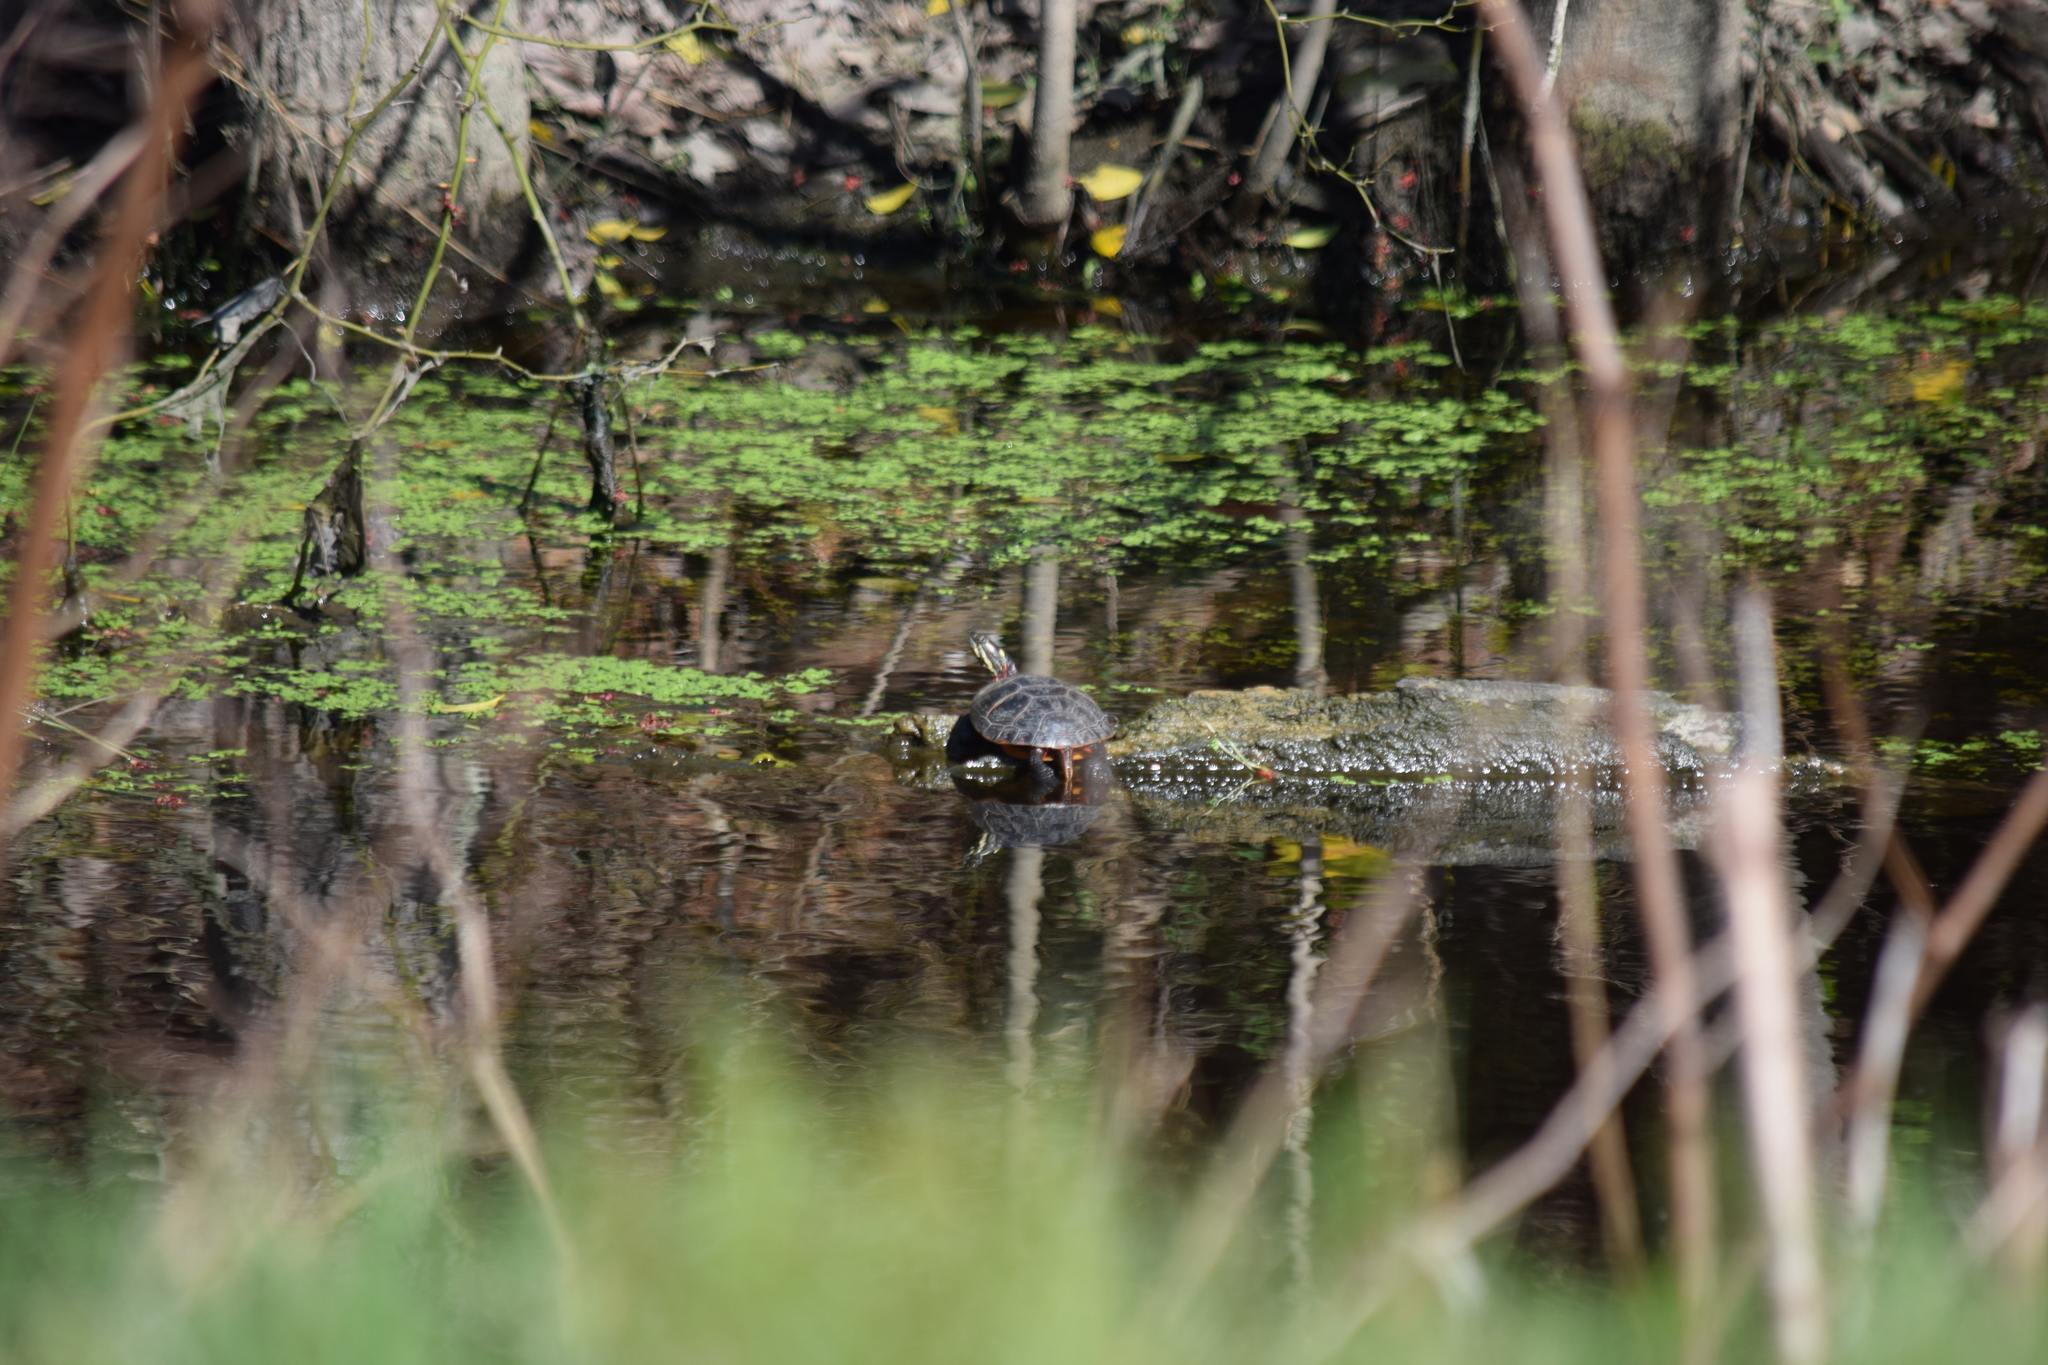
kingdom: Animalia
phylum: Chordata
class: Testudines
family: Emydidae
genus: Chrysemys
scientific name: Chrysemys picta
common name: Painted turtle
